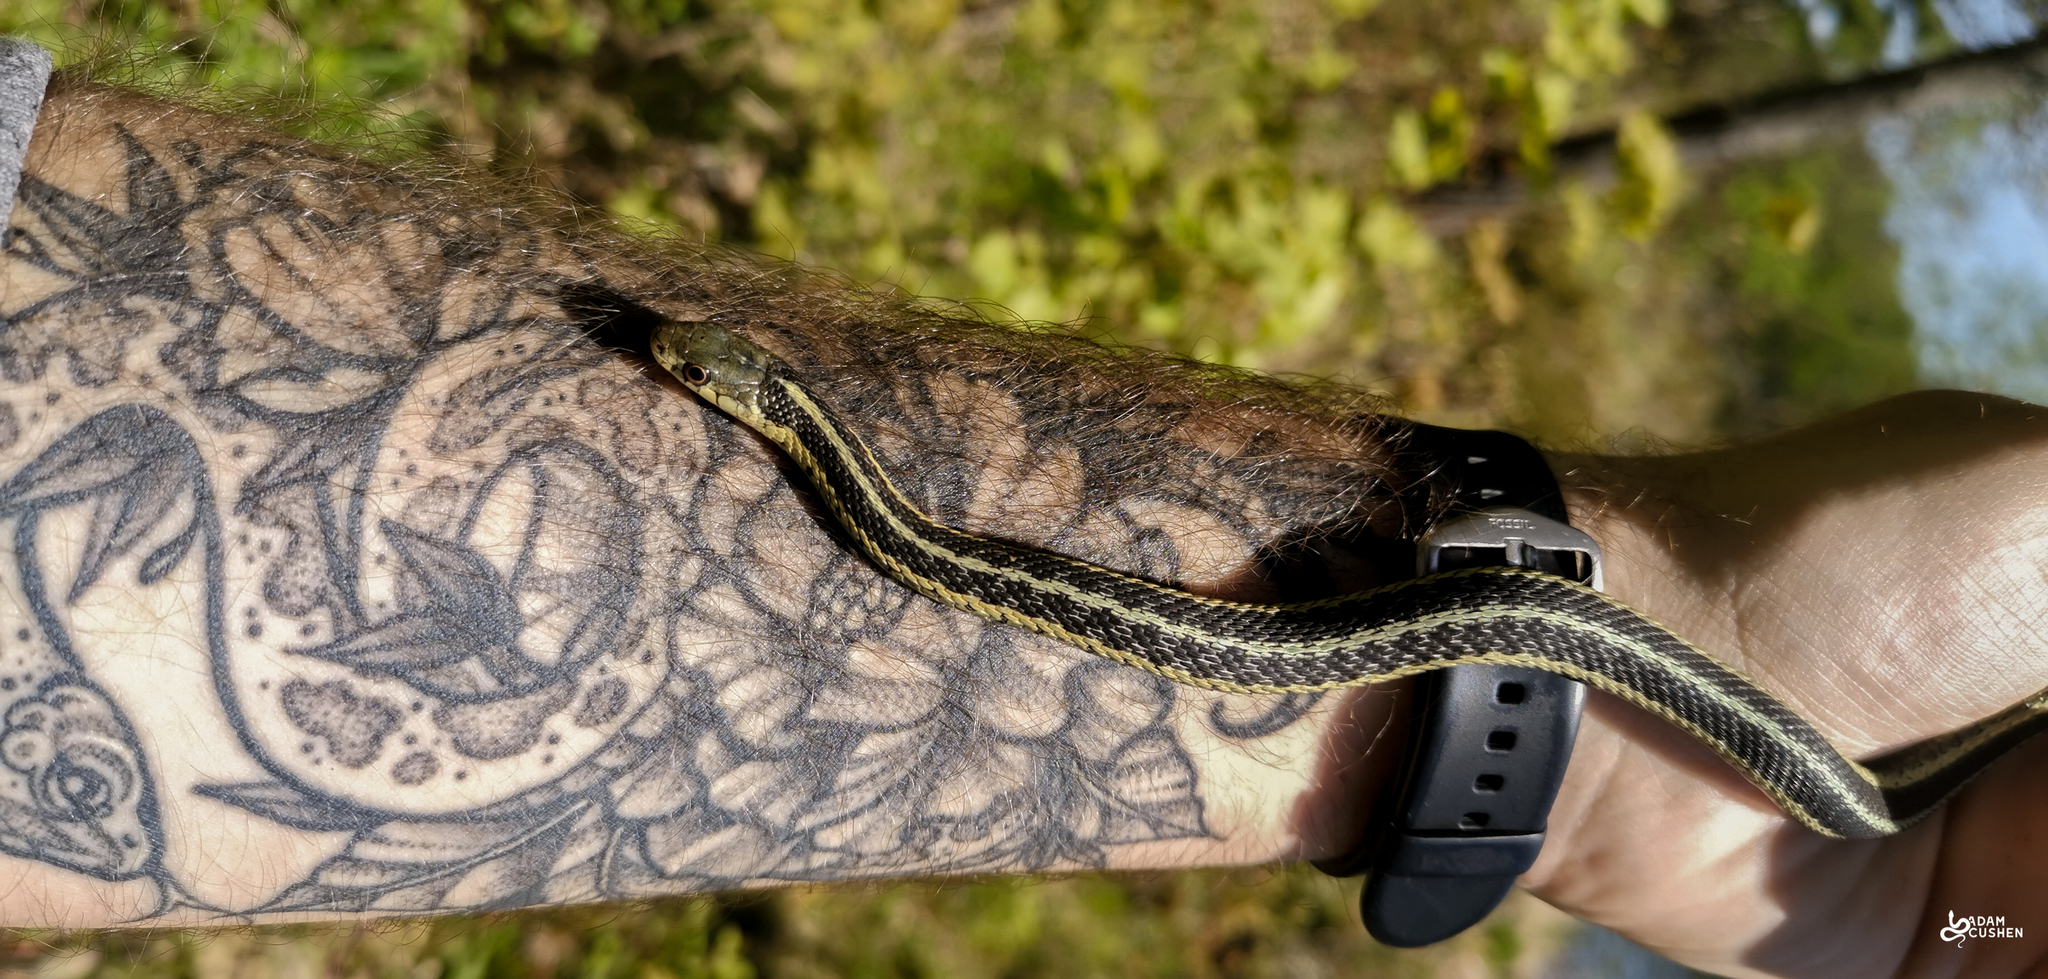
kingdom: Animalia
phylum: Chordata
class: Squamata
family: Colubridae
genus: Thamnophis
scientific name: Thamnophis sirtalis
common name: Common garter snake
